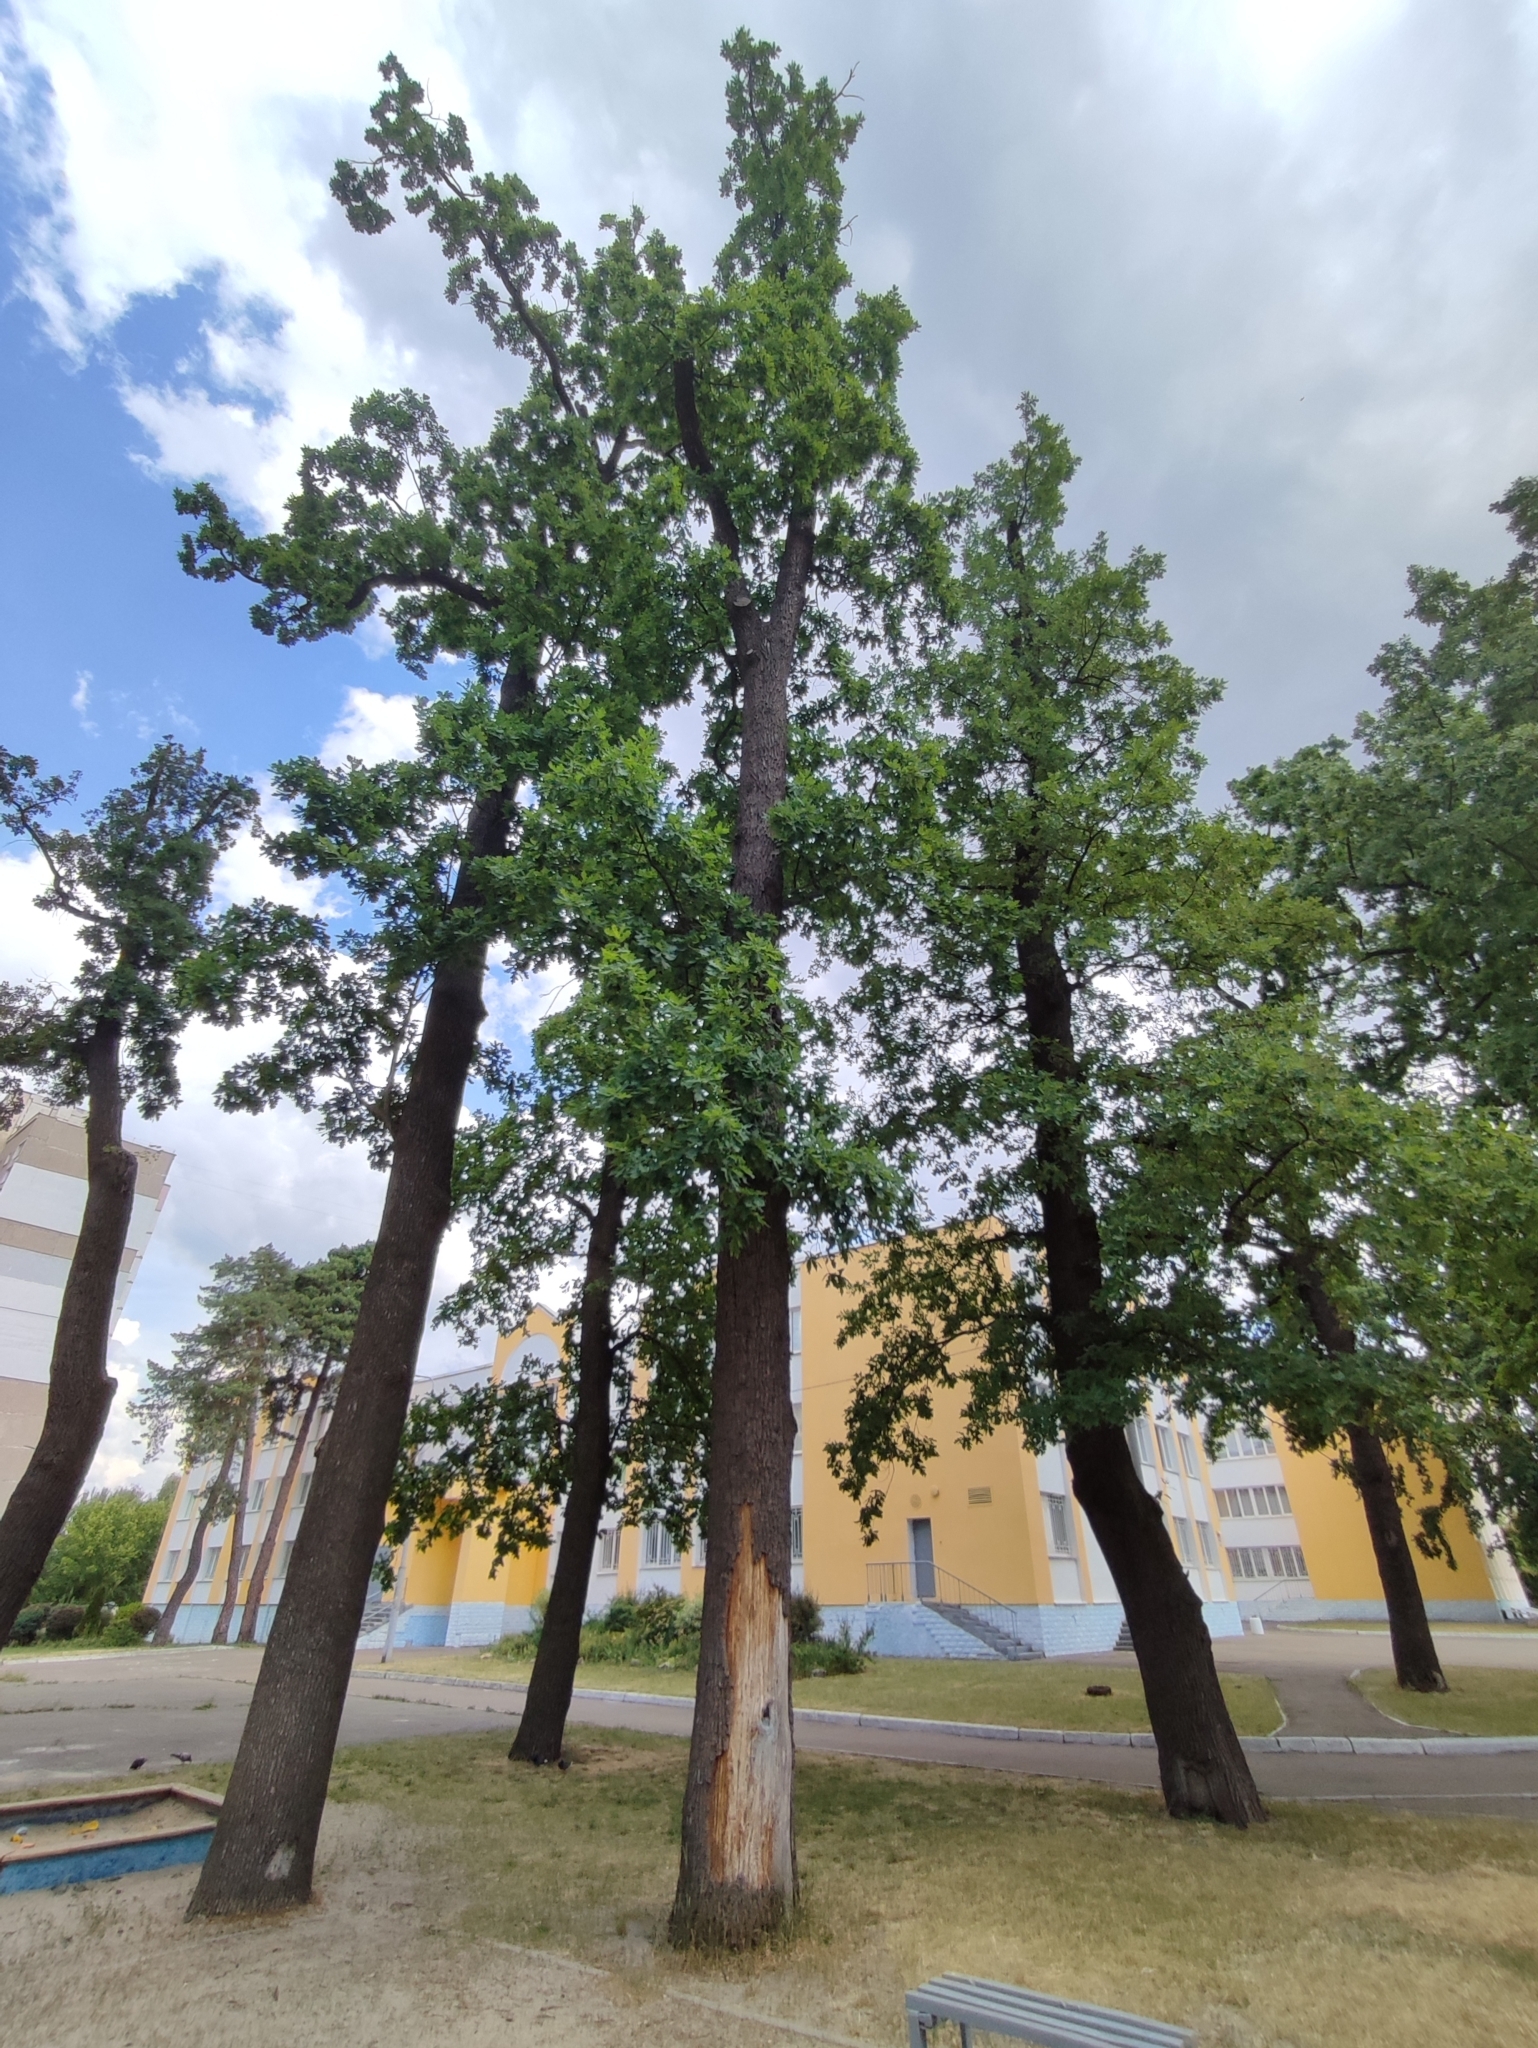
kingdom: Plantae
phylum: Tracheophyta
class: Magnoliopsida
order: Fagales
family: Fagaceae
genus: Quercus
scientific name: Quercus robur
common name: Pedunculate oak
